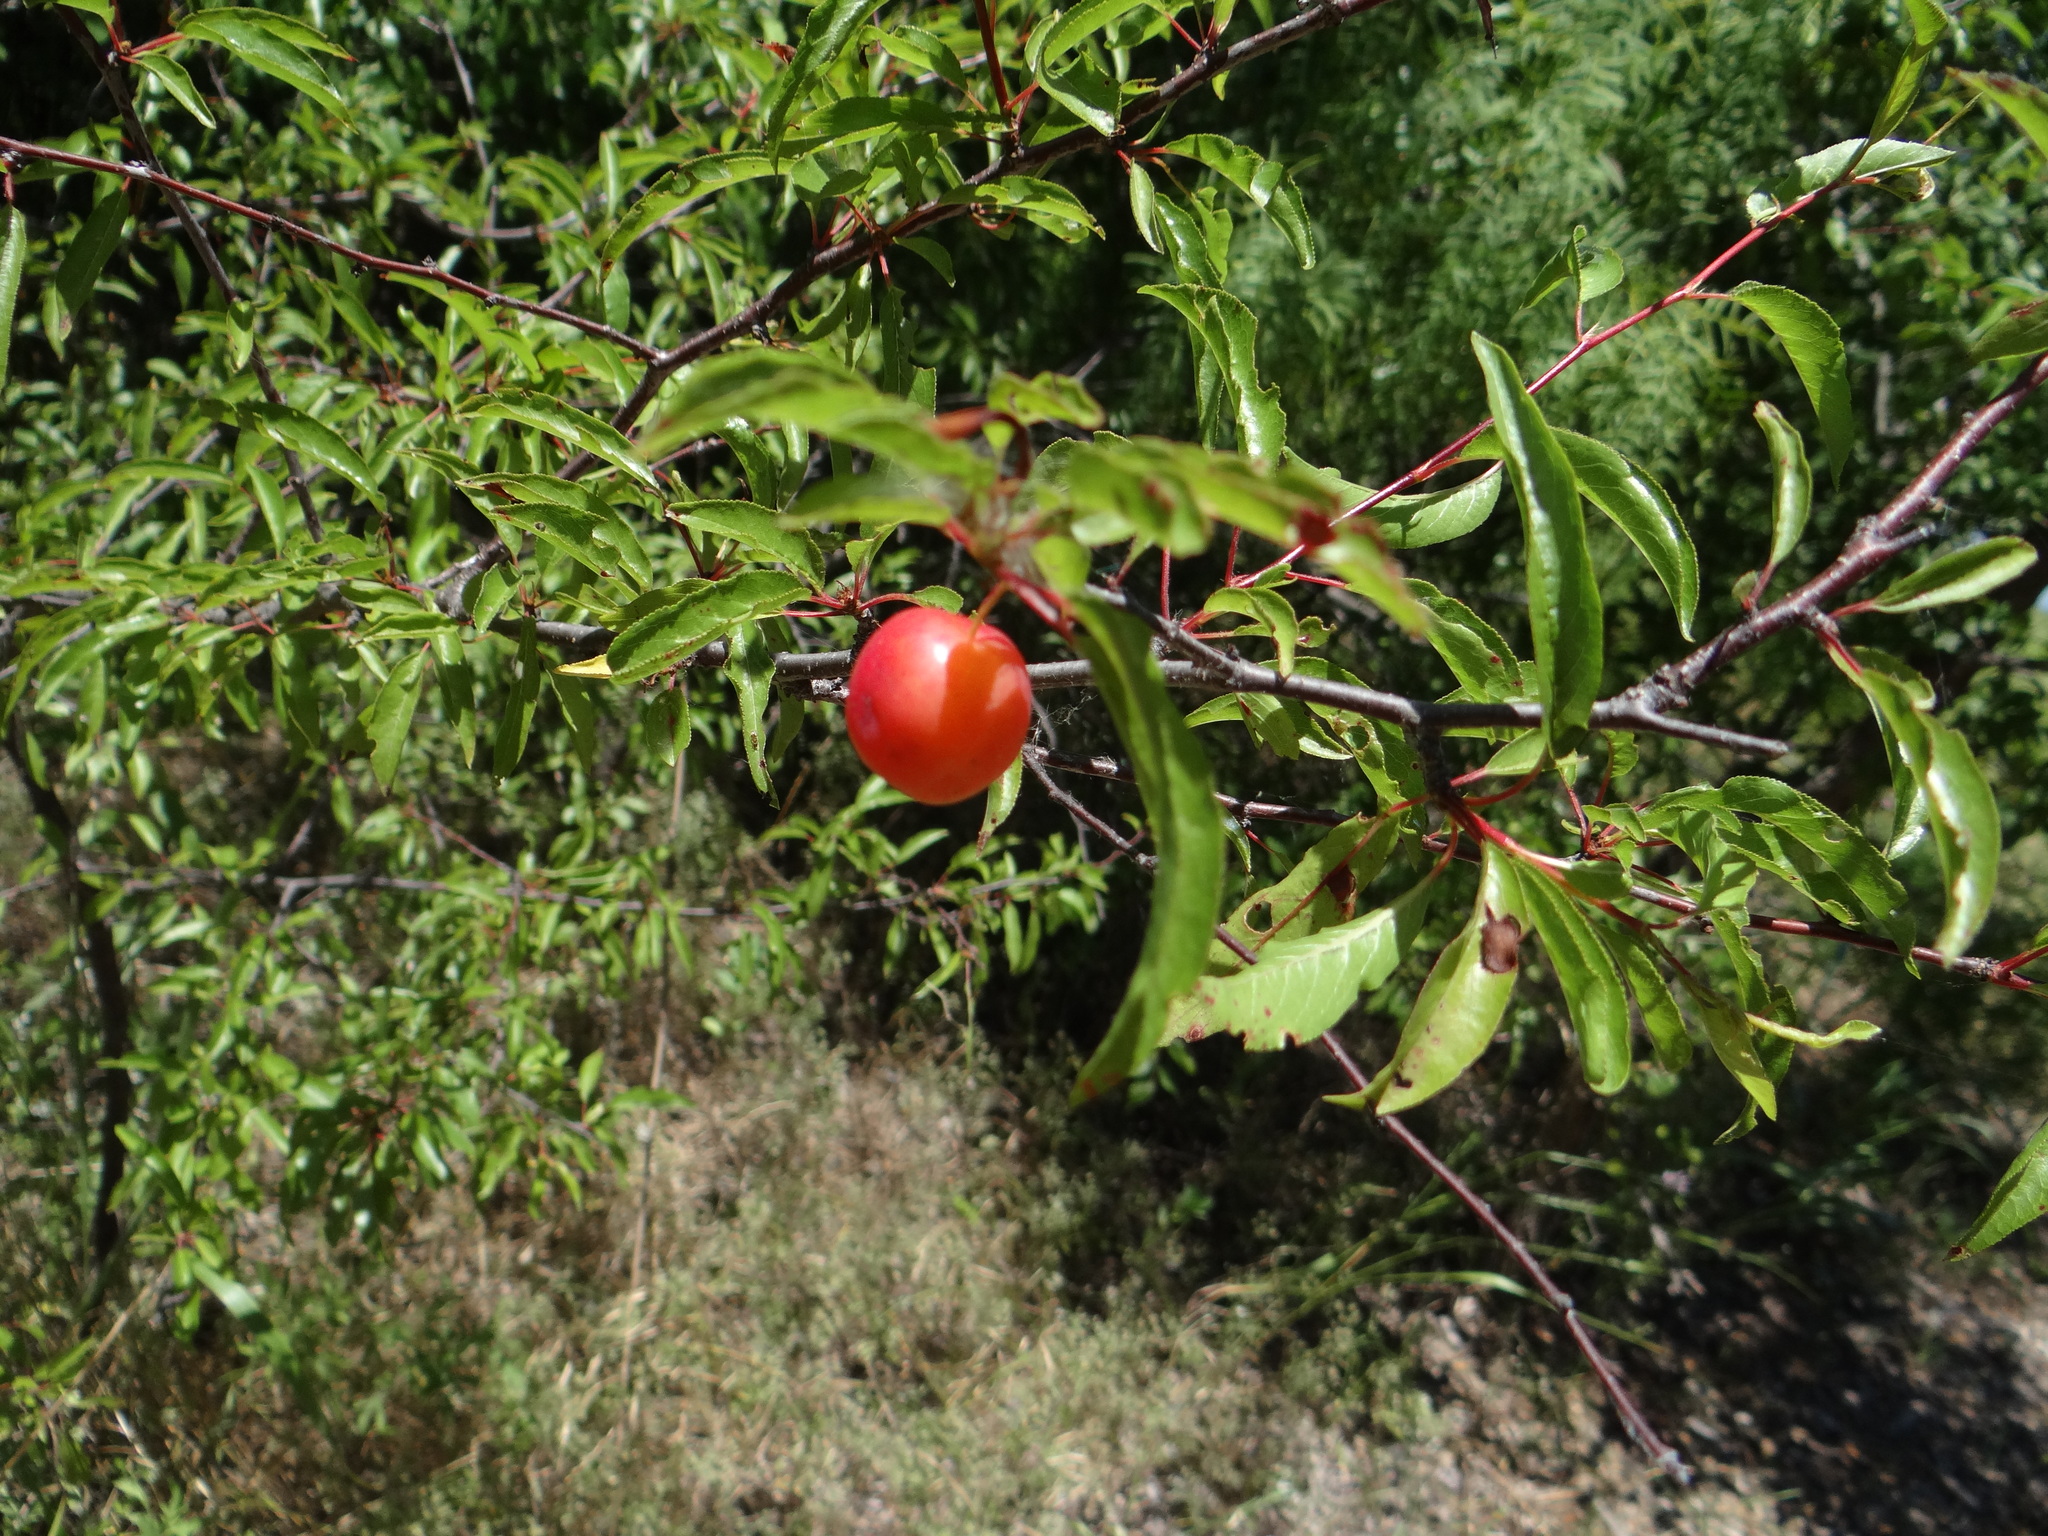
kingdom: Plantae
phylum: Tracheophyta
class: Magnoliopsida
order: Rosales
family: Rosaceae
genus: Prunus
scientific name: Prunus angustifolia
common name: Cherokee plum
